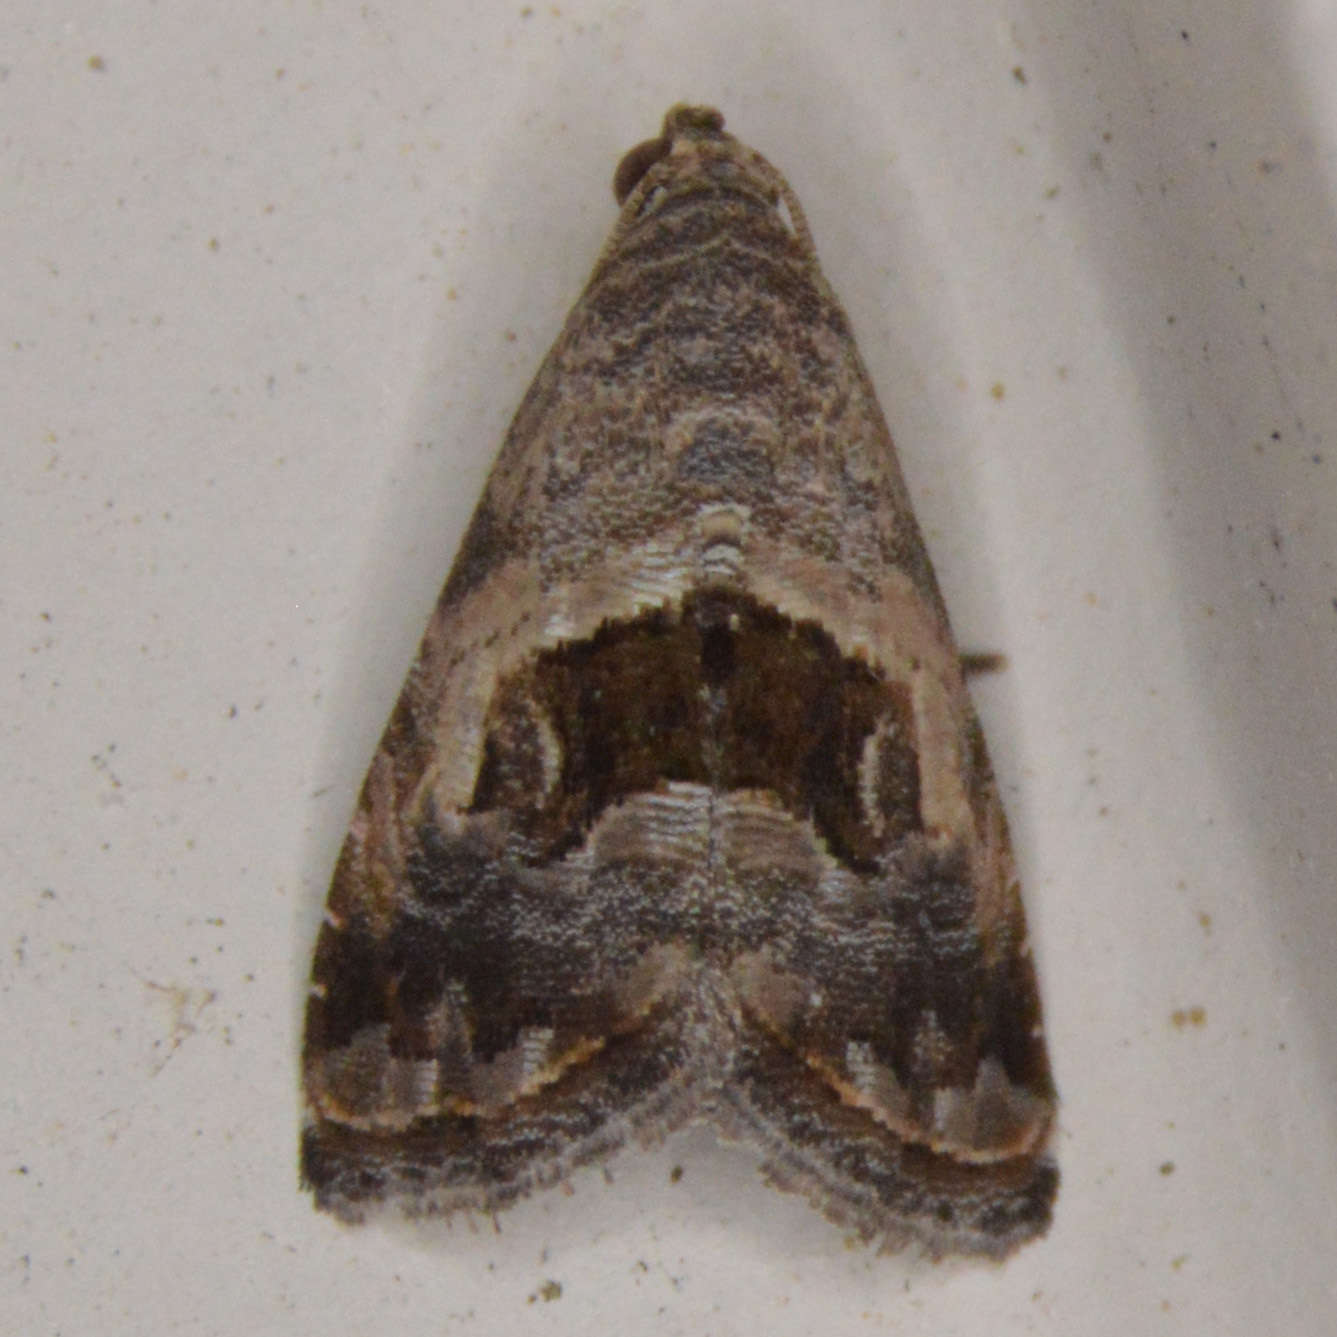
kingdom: Animalia
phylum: Arthropoda
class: Insecta
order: Lepidoptera
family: Noctuidae
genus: Tripudia
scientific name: Tripudia quadrifera
